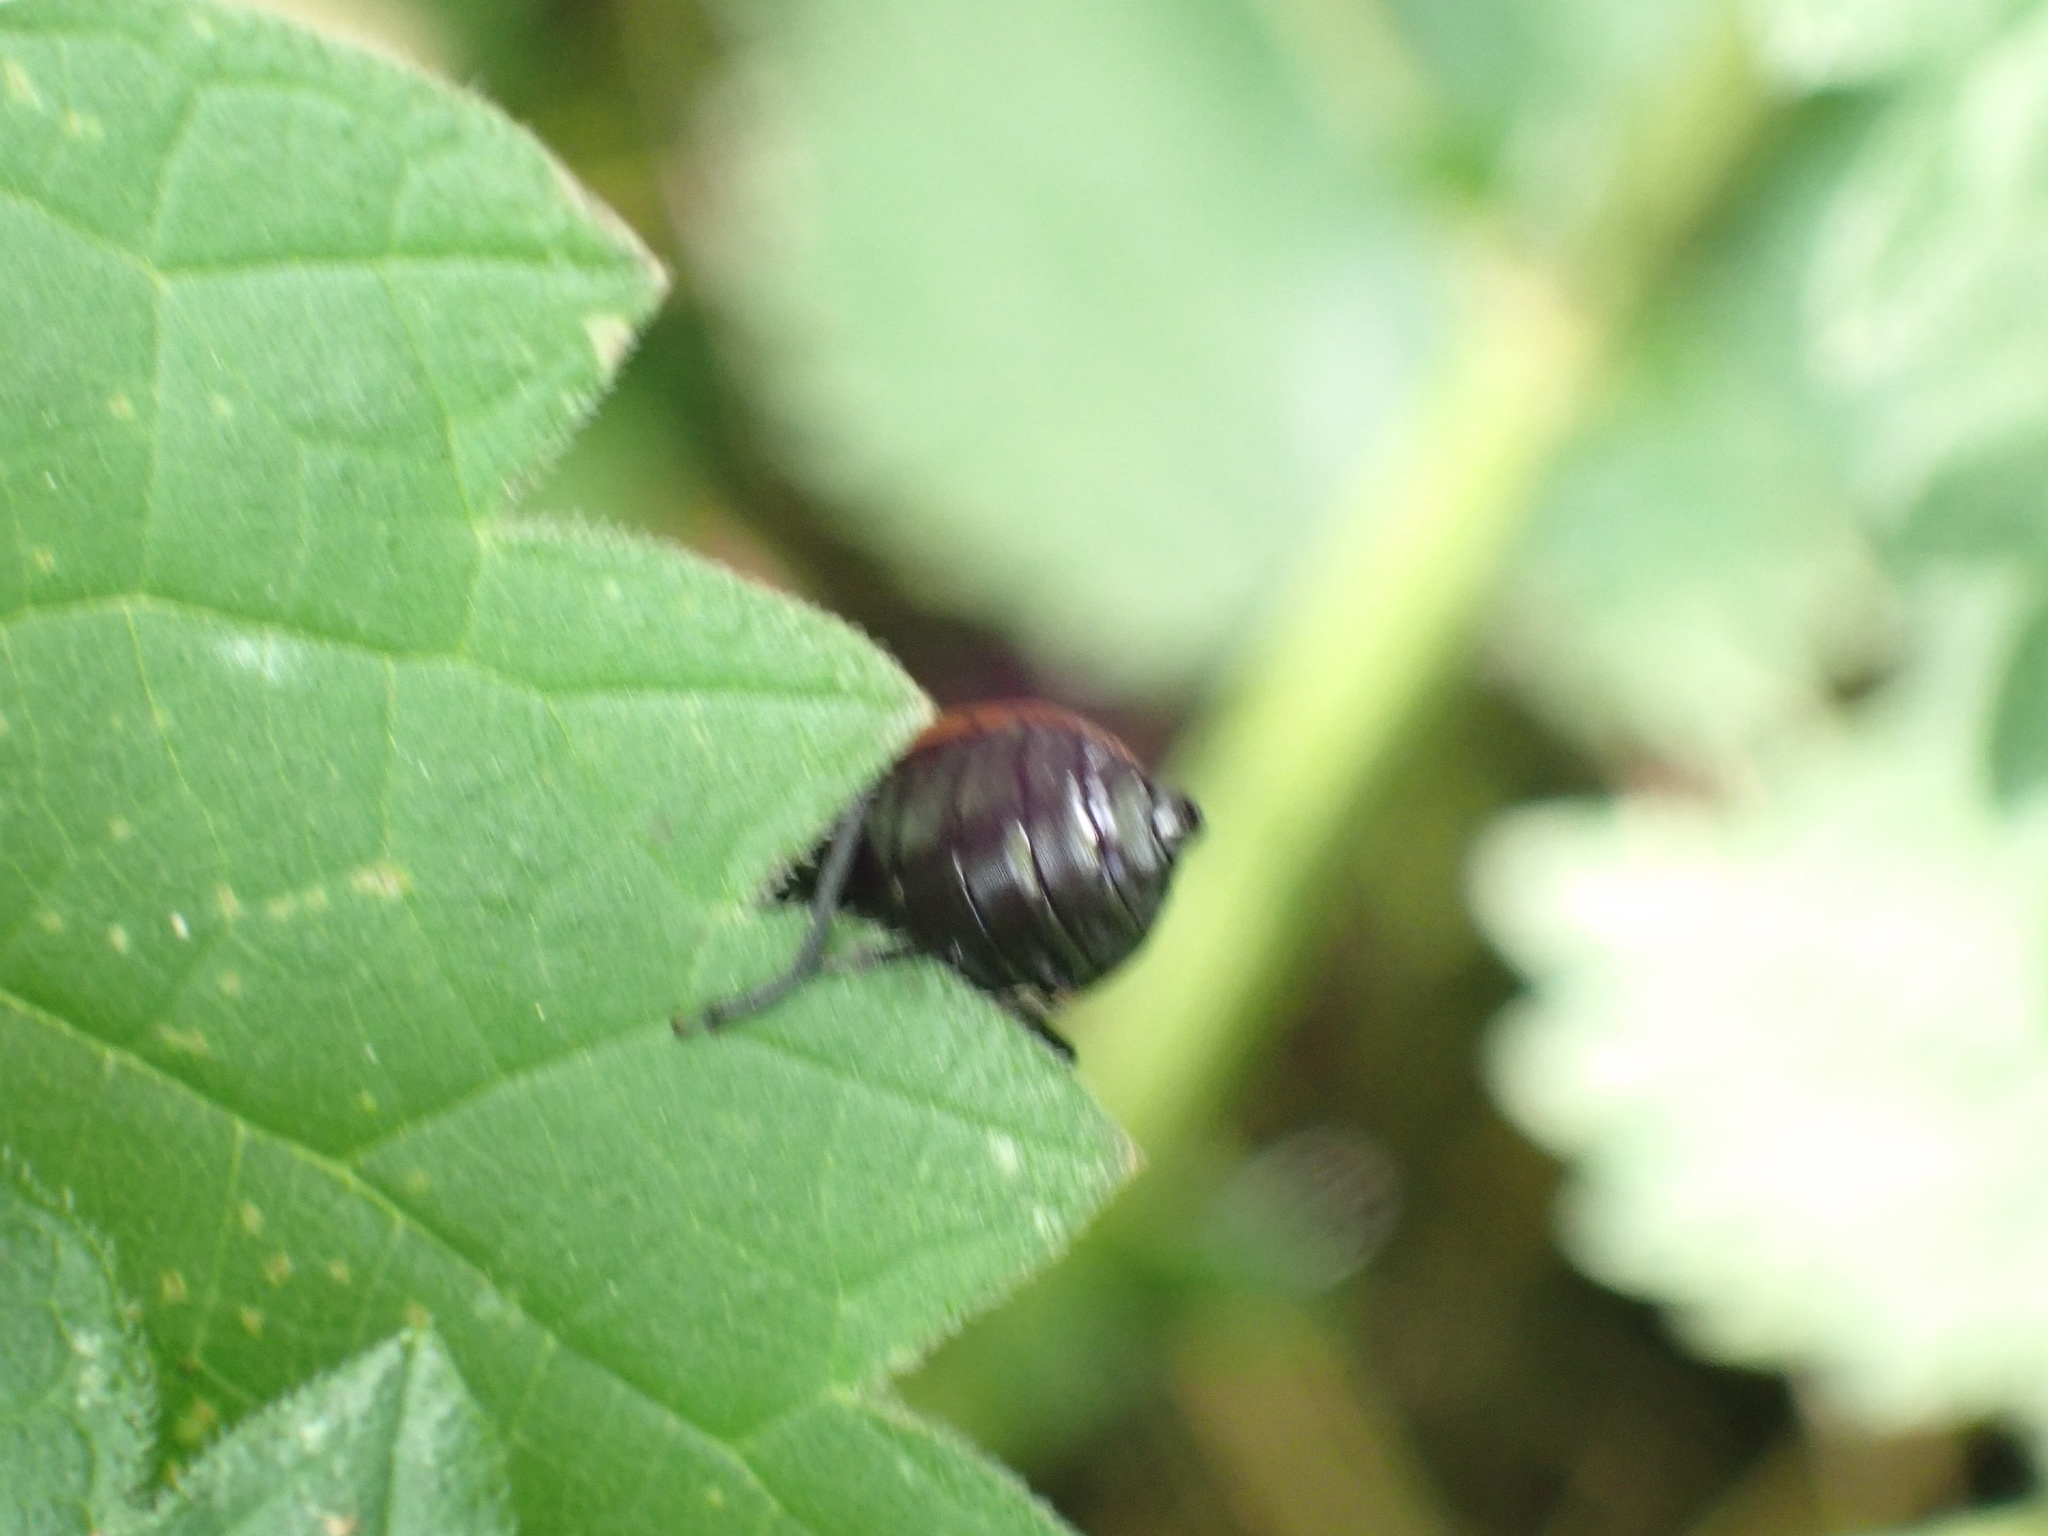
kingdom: Animalia
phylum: Arthropoda
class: Insecta
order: Coleoptera
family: Pyrochroidae
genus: Pyrochroa
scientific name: Pyrochroa serraticornis
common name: Red-headed cardinal beetle
